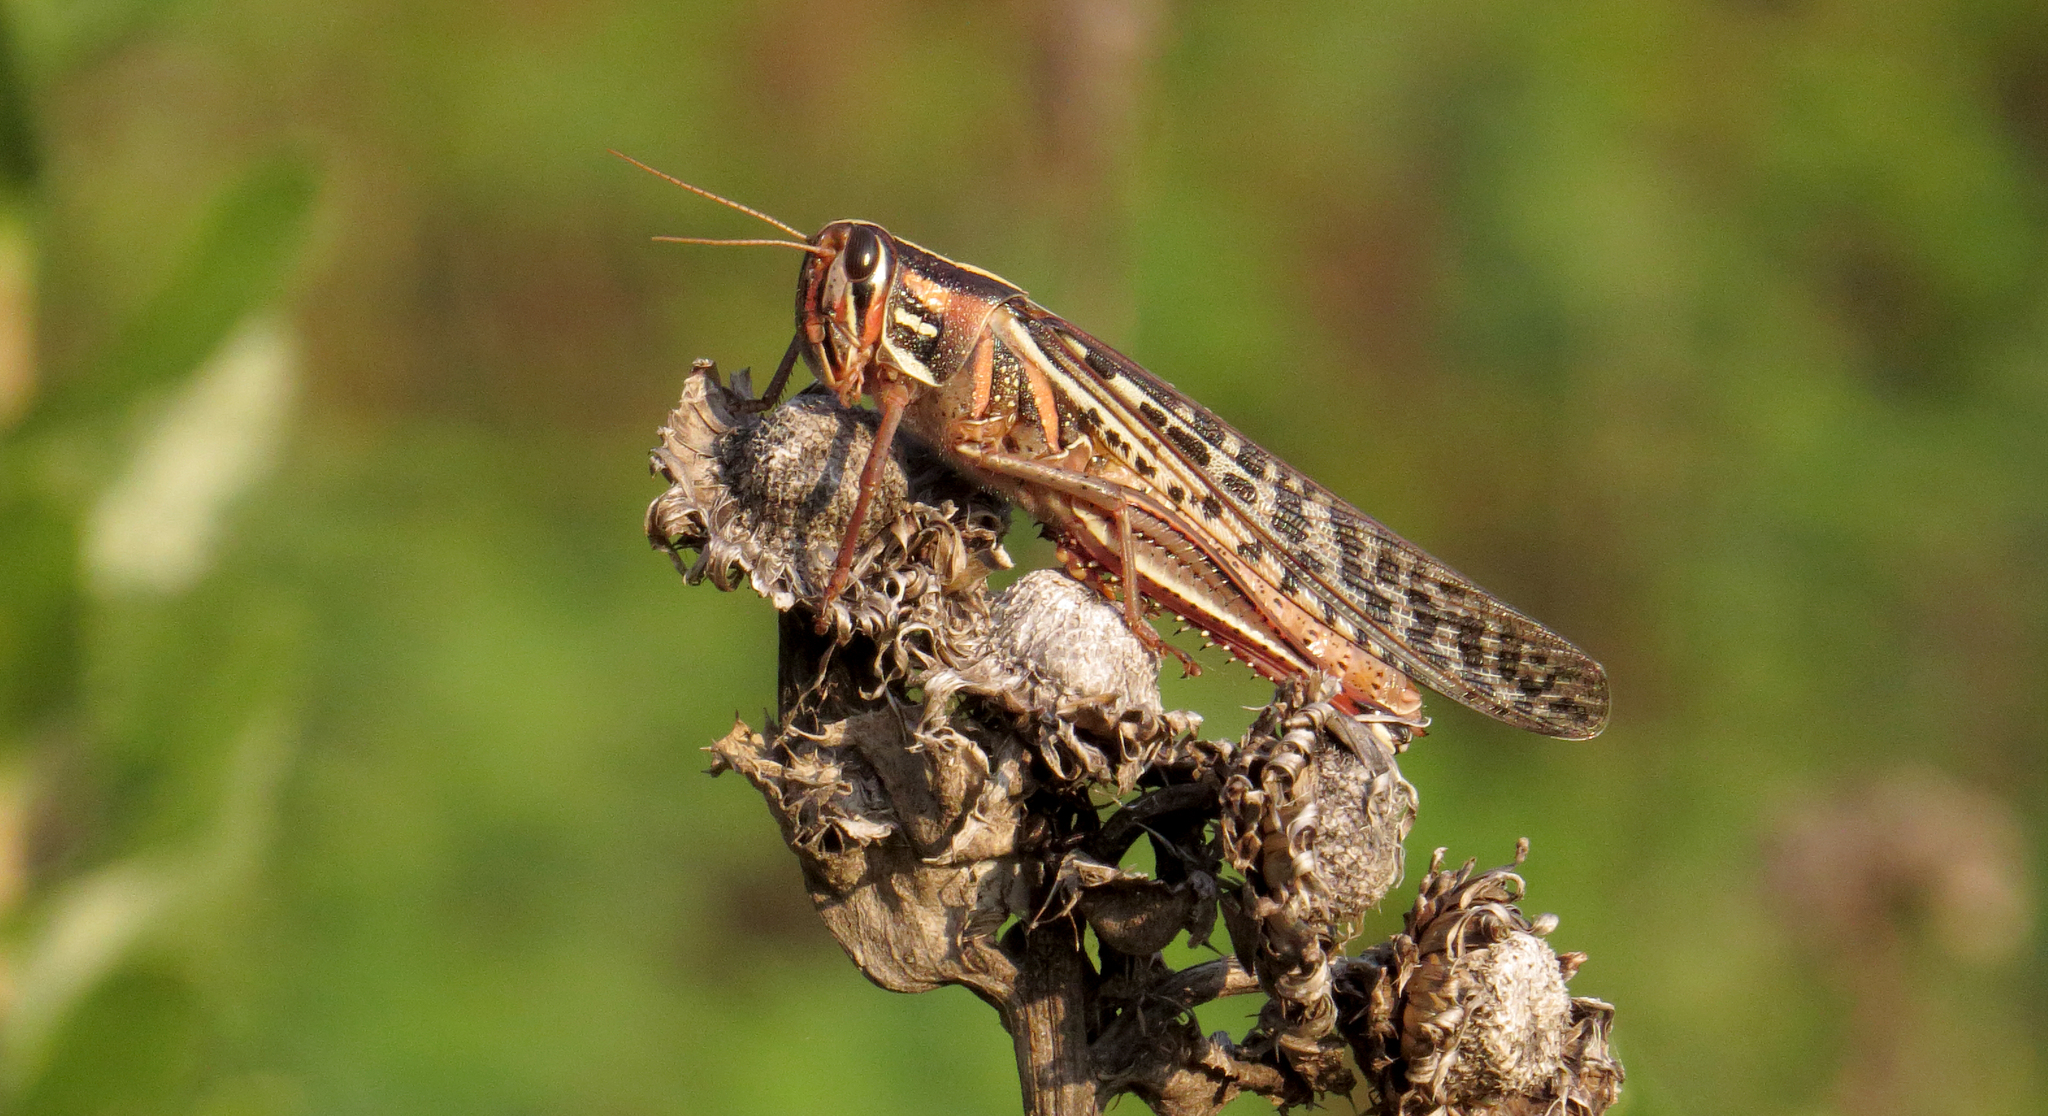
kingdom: Animalia
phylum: Arthropoda
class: Insecta
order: Orthoptera
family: Acrididae
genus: Schistocerca
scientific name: Schistocerca americana
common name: American bird locust
